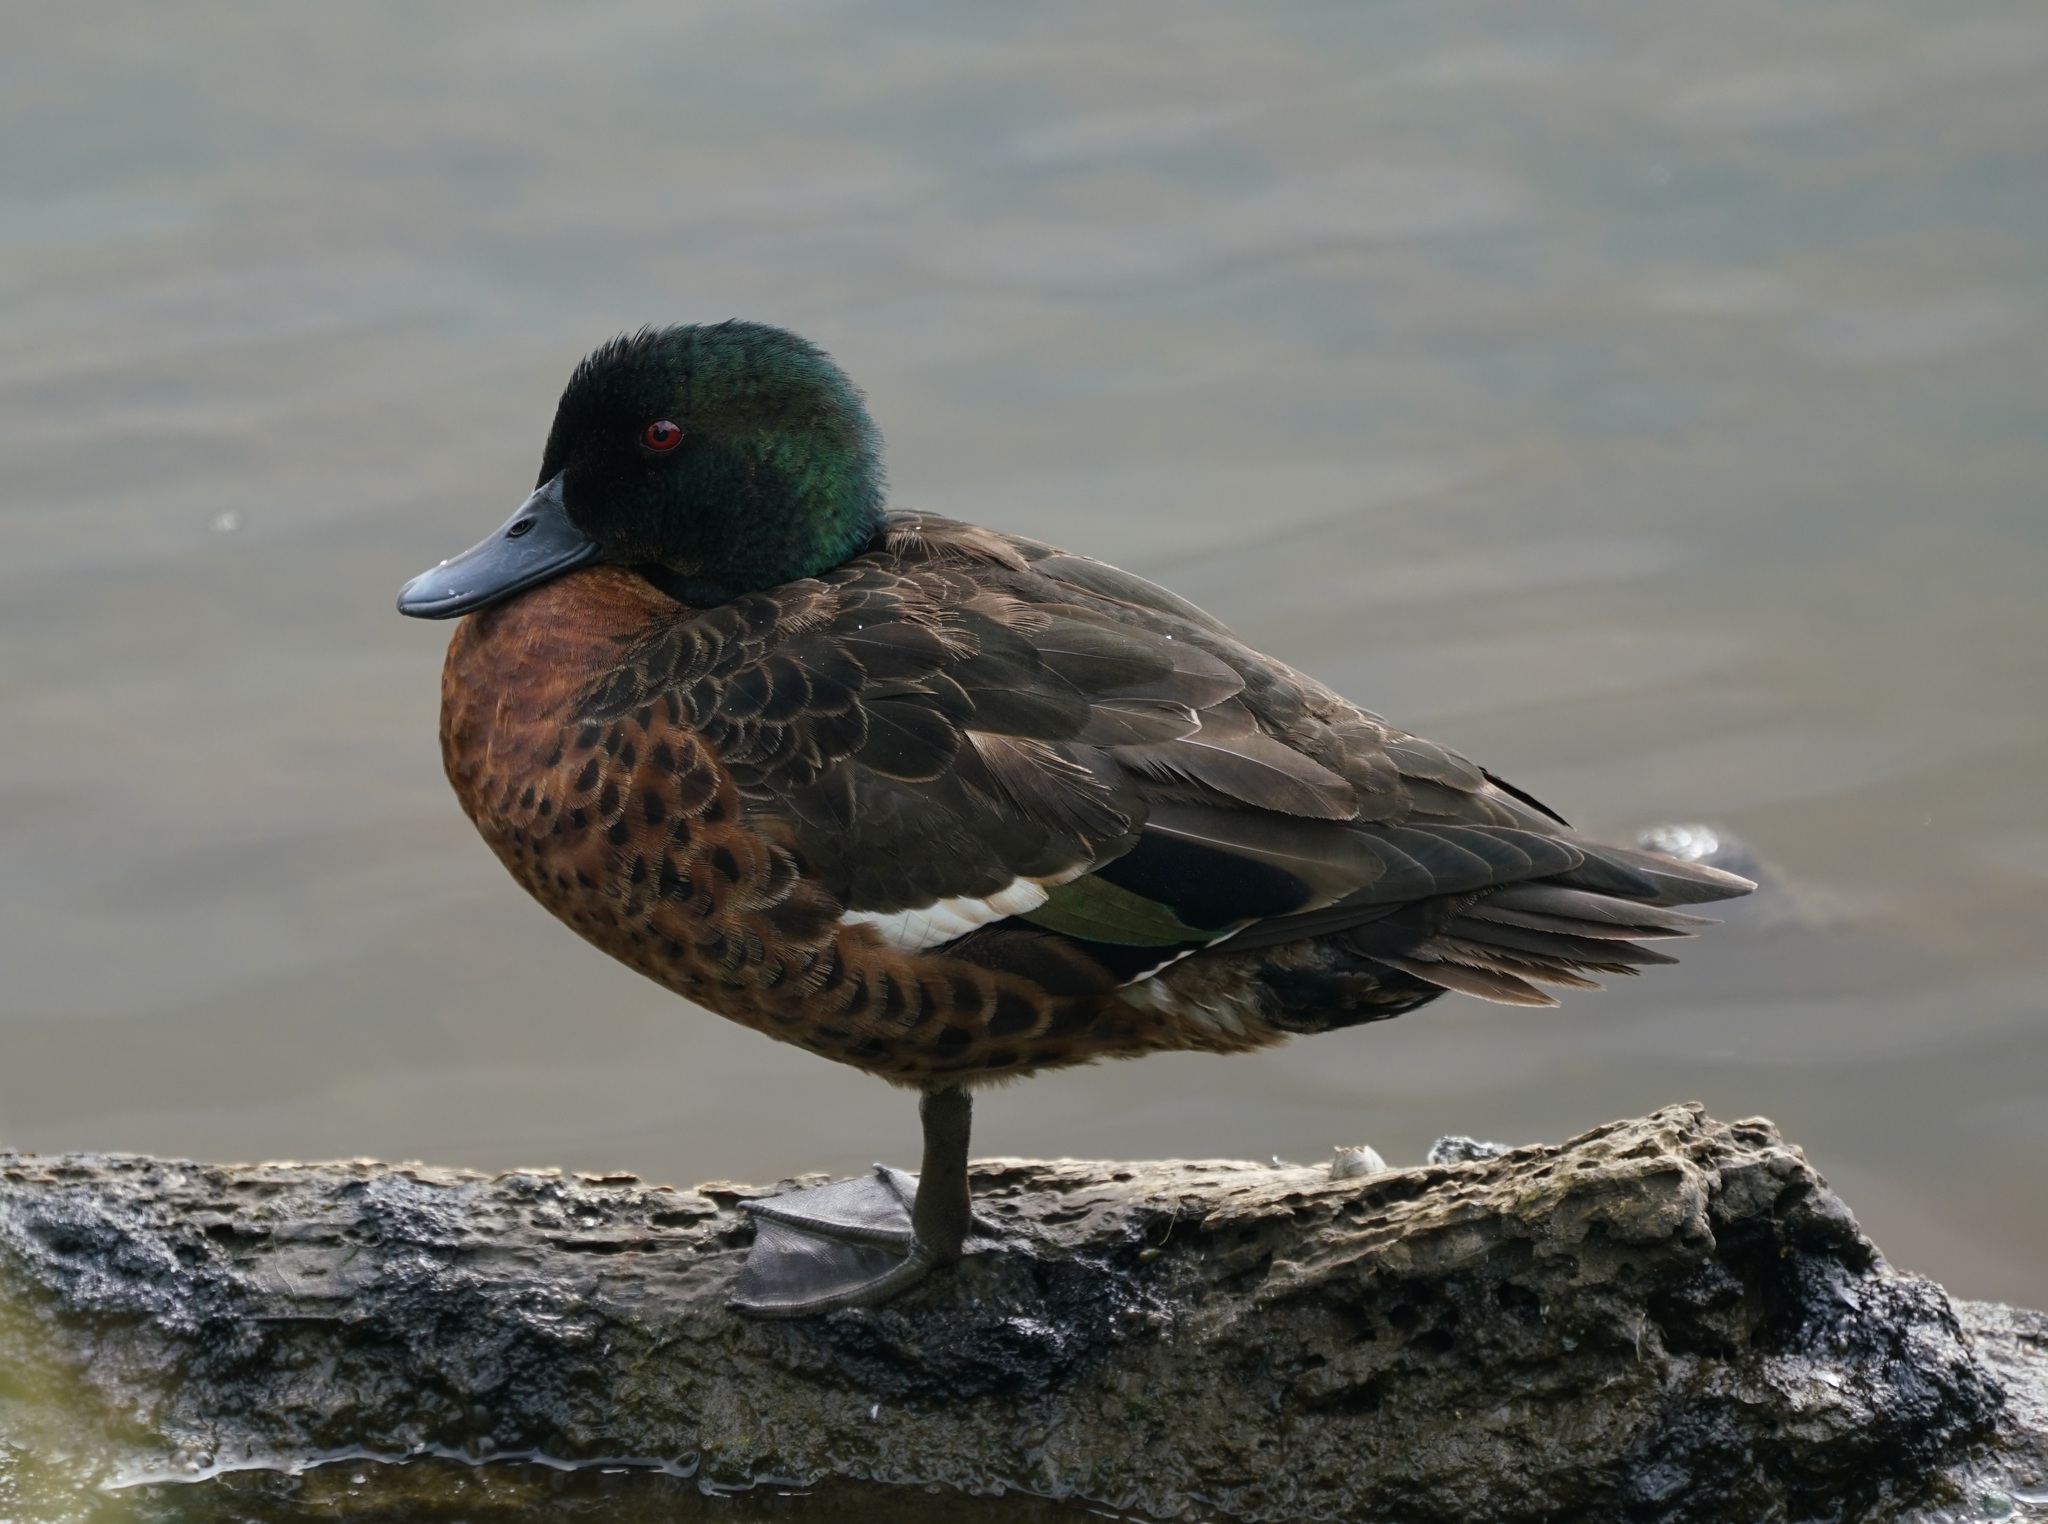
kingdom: Animalia
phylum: Chordata
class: Aves
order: Anseriformes
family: Anatidae
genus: Anas
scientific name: Anas castanea
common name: Chestnut teal
